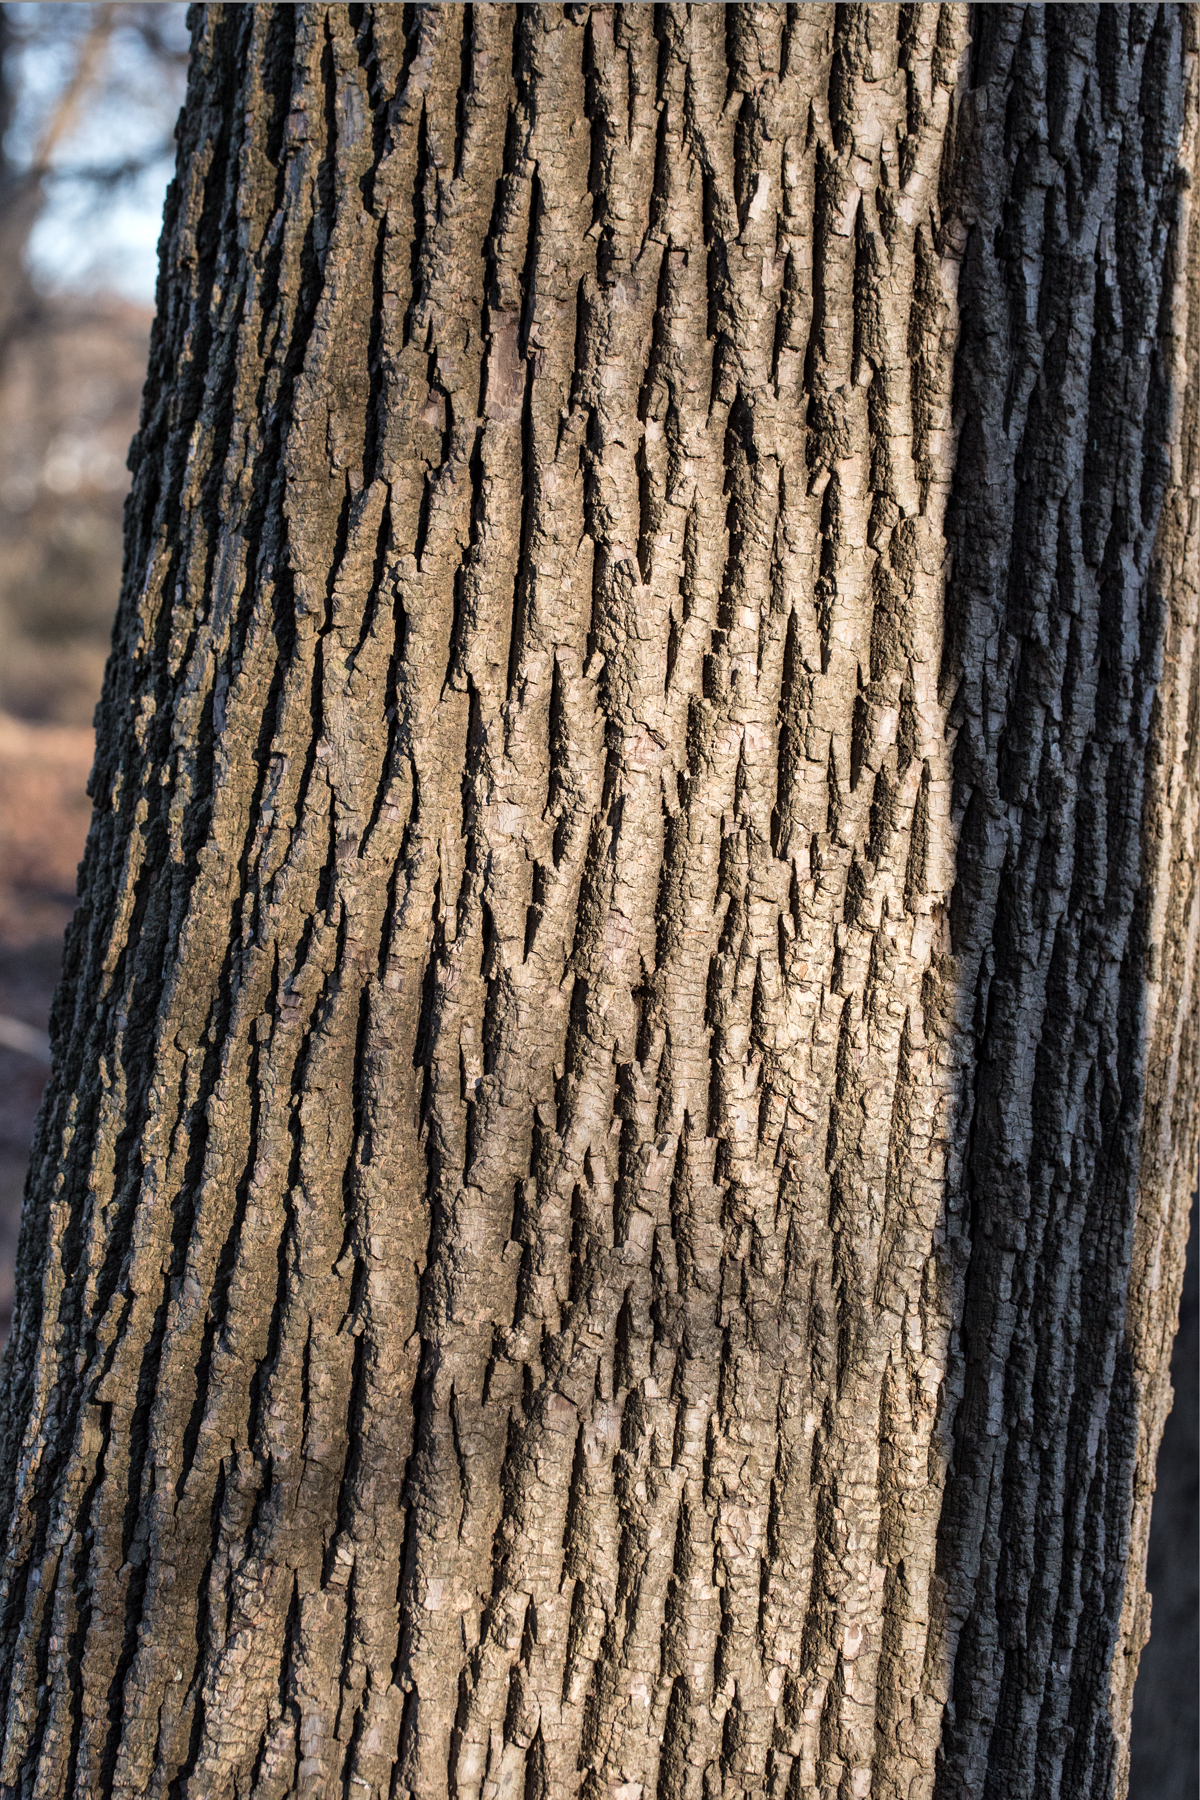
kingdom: Plantae
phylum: Tracheophyta
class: Magnoliopsida
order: Lamiales
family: Oleaceae
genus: Fraxinus
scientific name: Fraxinus americana
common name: White ash
